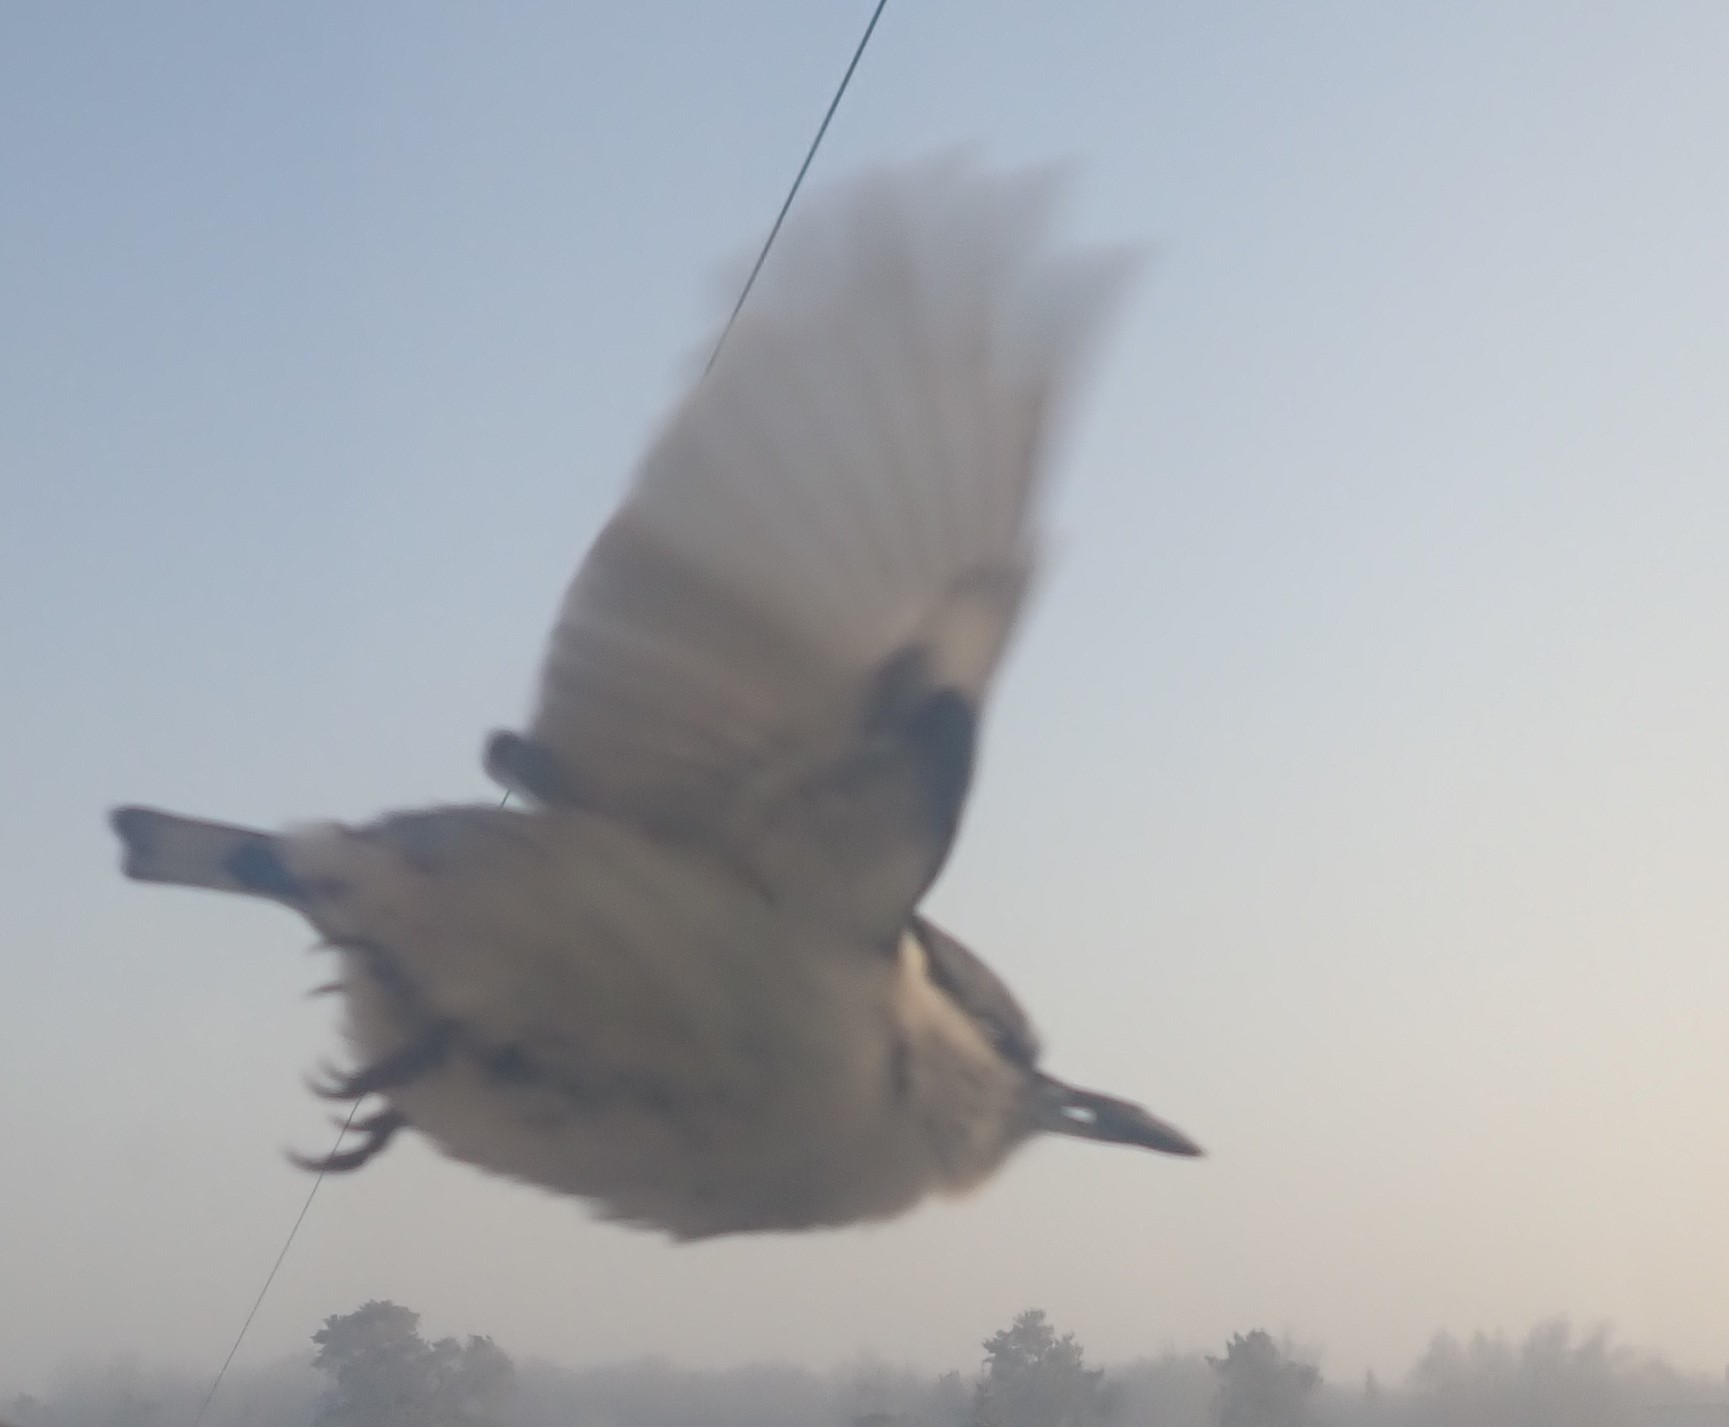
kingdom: Animalia
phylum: Chordata
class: Aves
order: Passeriformes
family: Sittidae
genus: Sitta
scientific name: Sitta europaea
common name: Eurasian nuthatch
